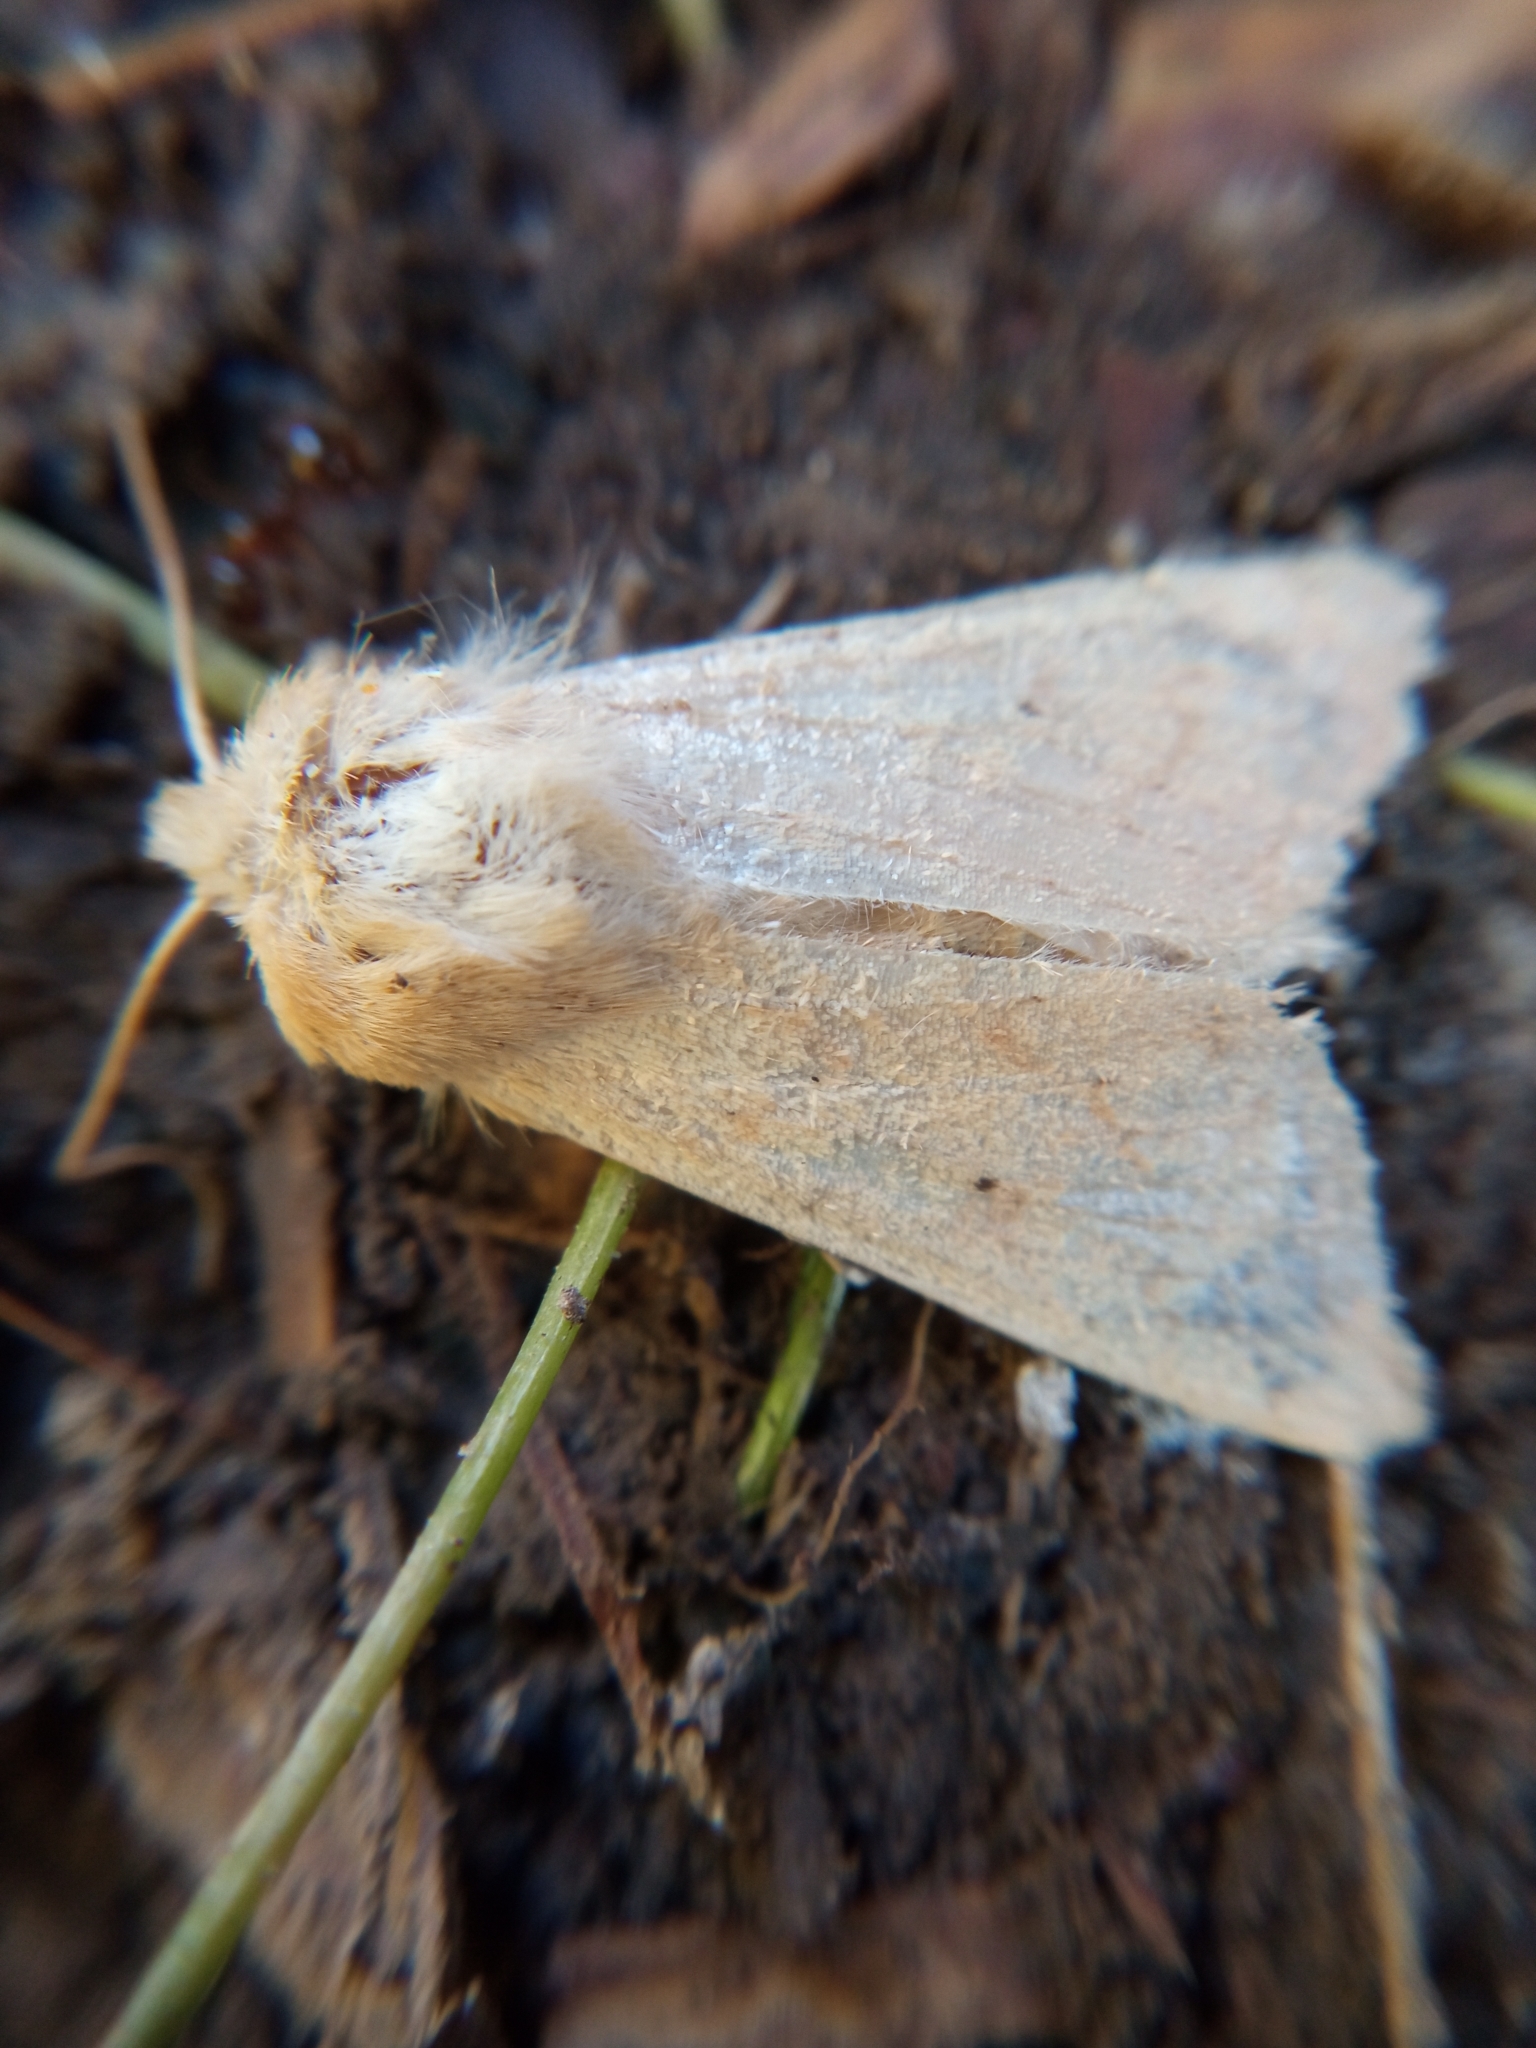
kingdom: Animalia
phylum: Arthropoda
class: Insecta
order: Lepidoptera
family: Noctuidae
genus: Mythimna
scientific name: Mythimna vitellina
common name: Delicate
